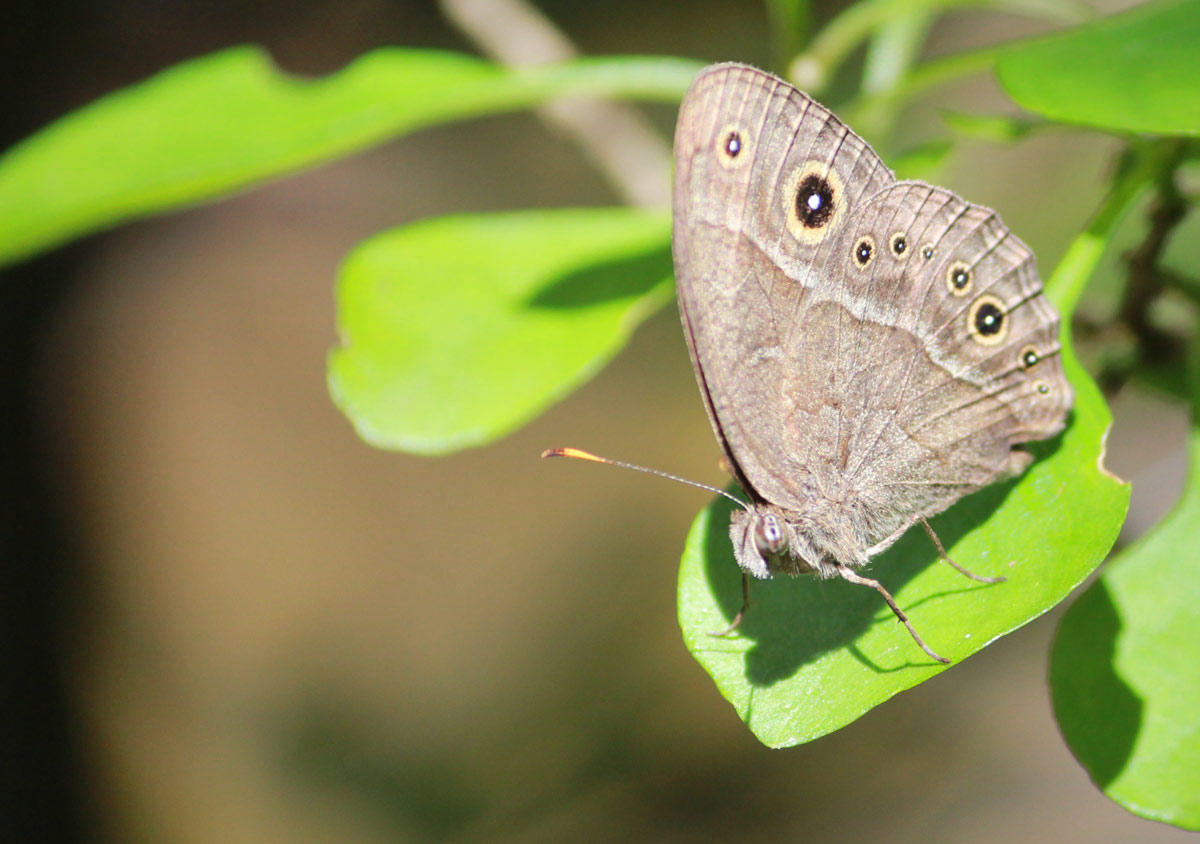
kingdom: Animalia
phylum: Arthropoda
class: Insecta
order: Lepidoptera
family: Nymphalidae
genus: Mycalesis
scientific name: Mycalesis anynana
